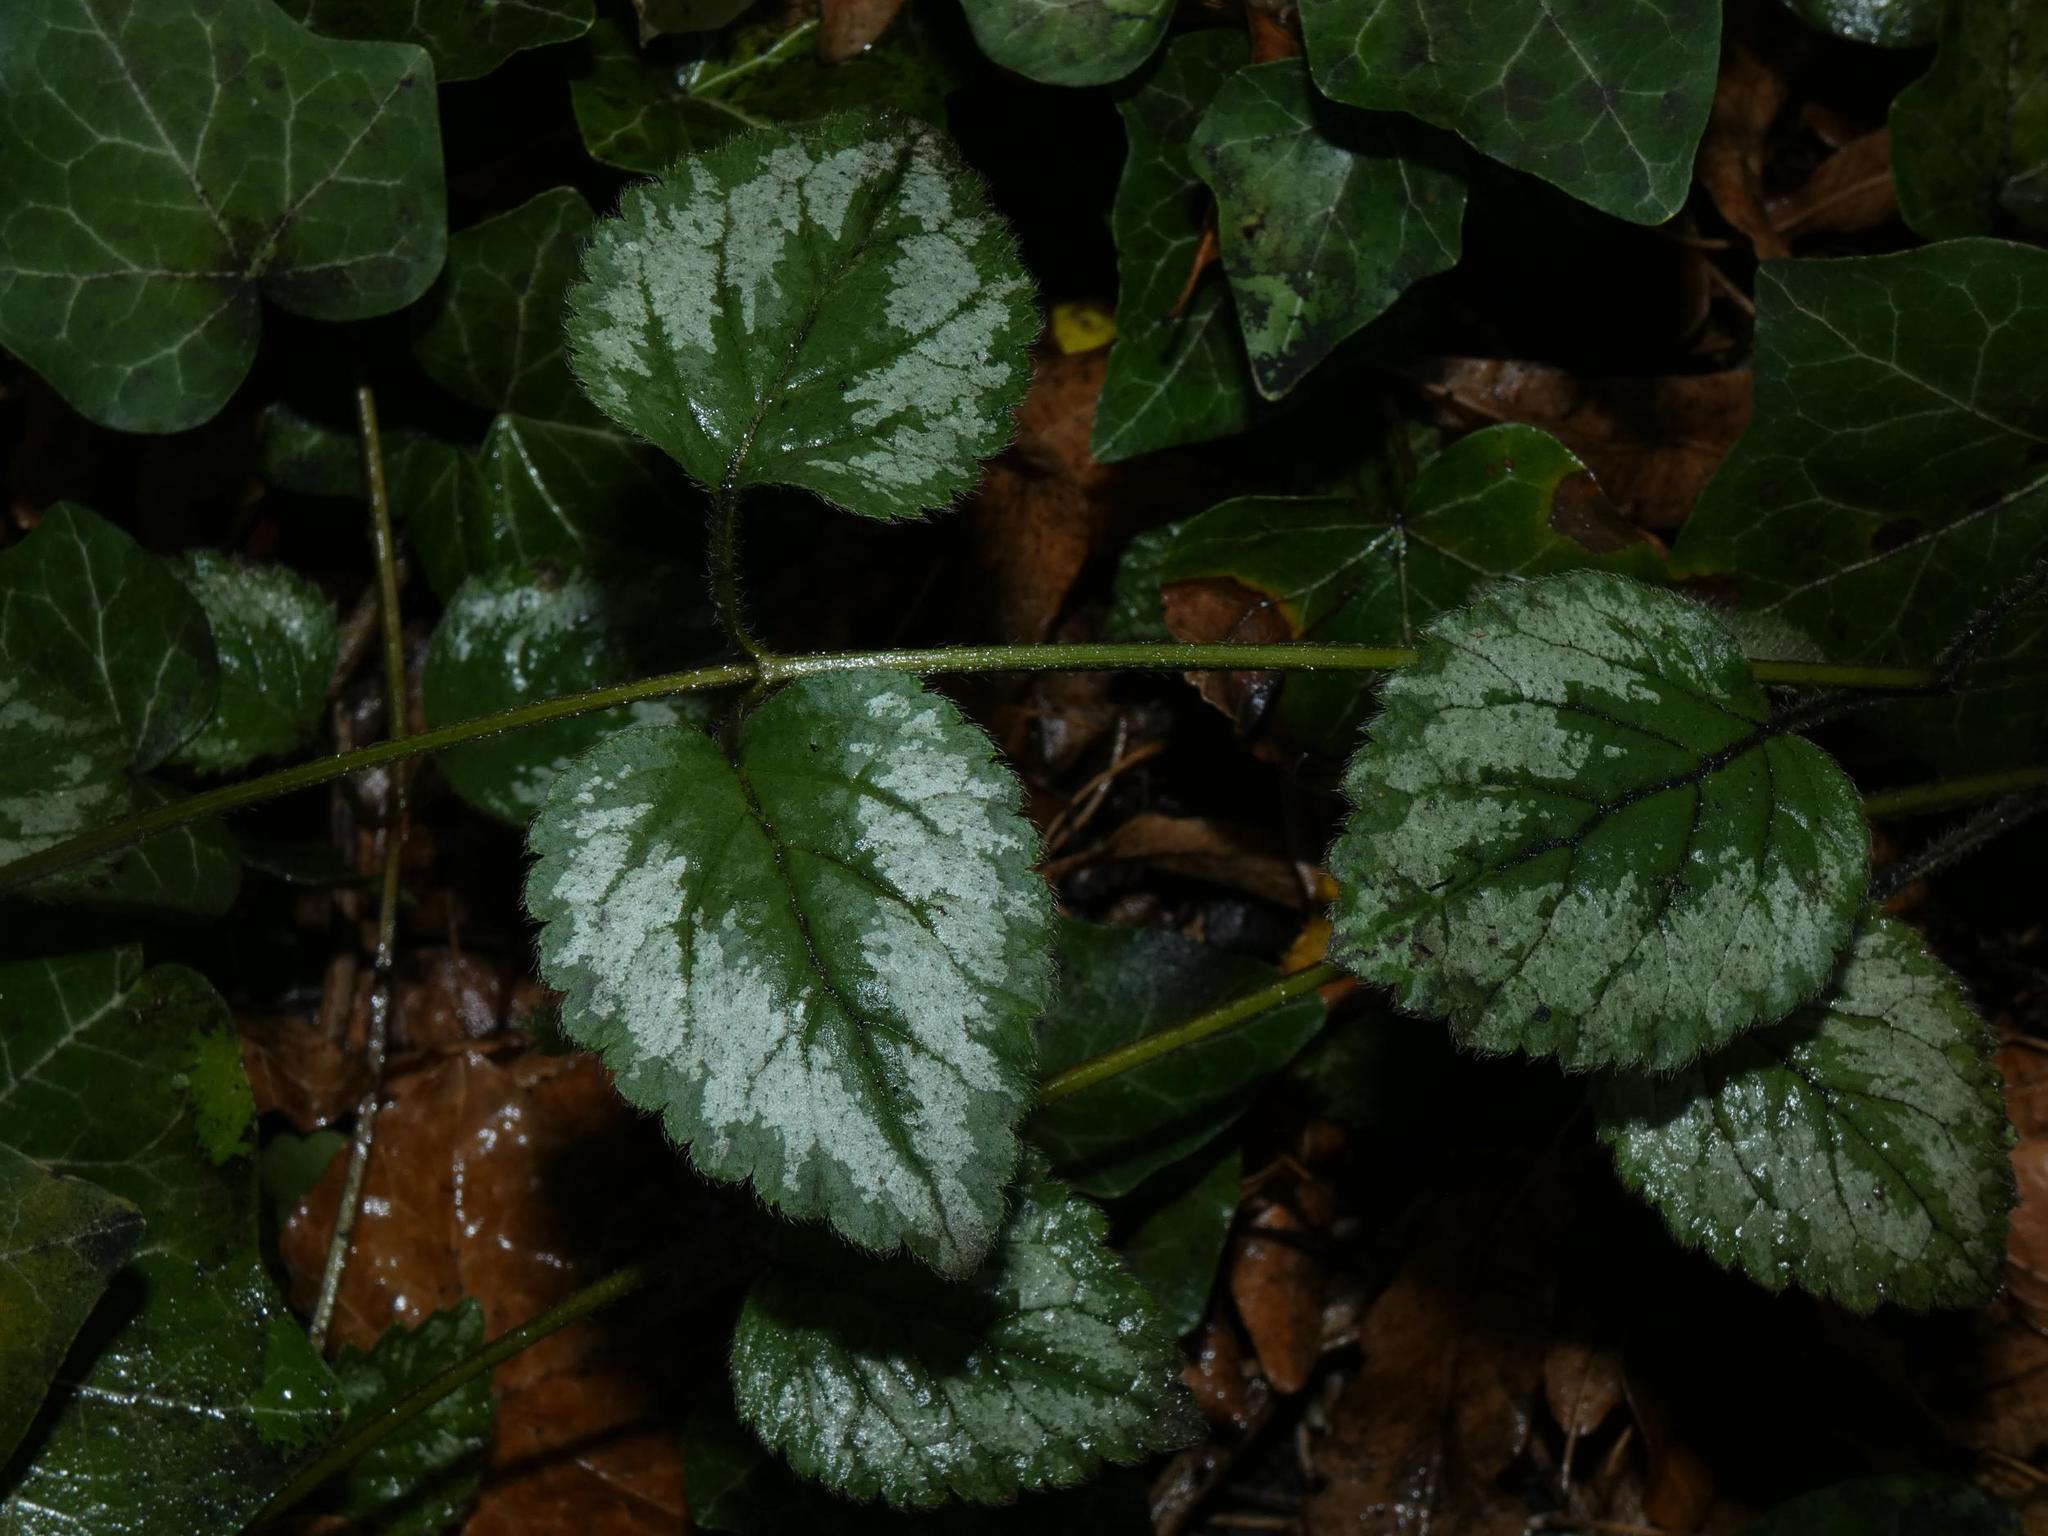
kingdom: Plantae
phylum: Tracheophyta
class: Magnoliopsida
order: Lamiales
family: Lamiaceae
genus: Lamium
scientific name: Lamium galeobdolon
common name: Yellow archangel
